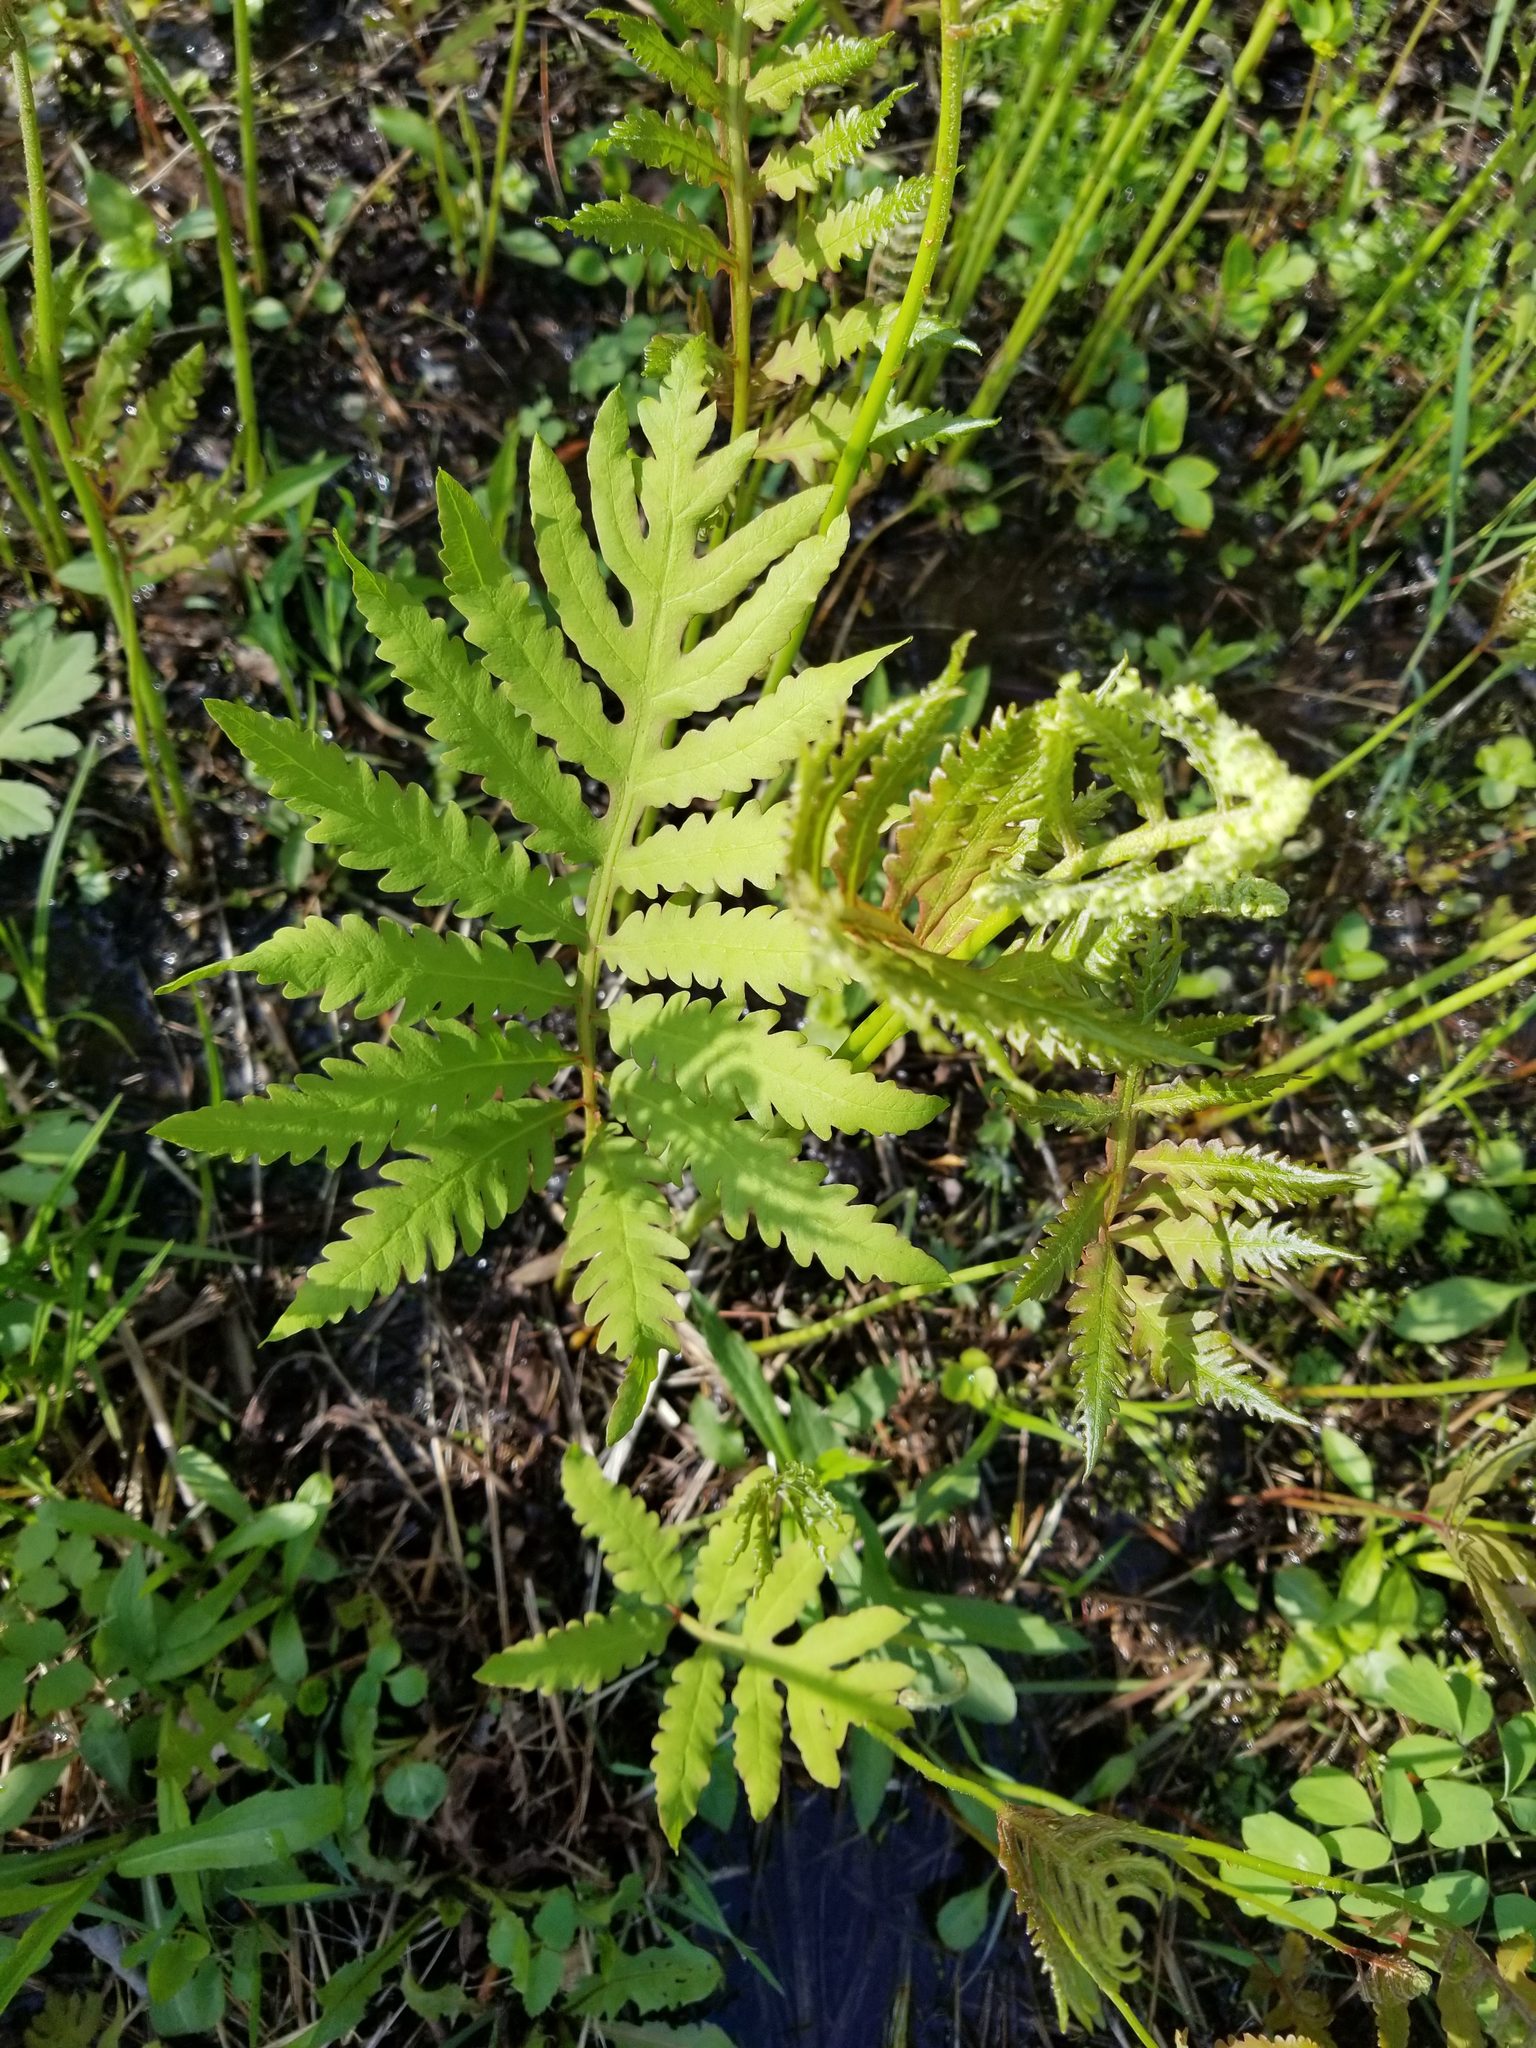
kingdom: Plantae
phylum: Tracheophyta
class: Polypodiopsida
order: Polypodiales
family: Onocleaceae
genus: Onoclea
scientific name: Onoclea sensibilis
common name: Sensitive fern
